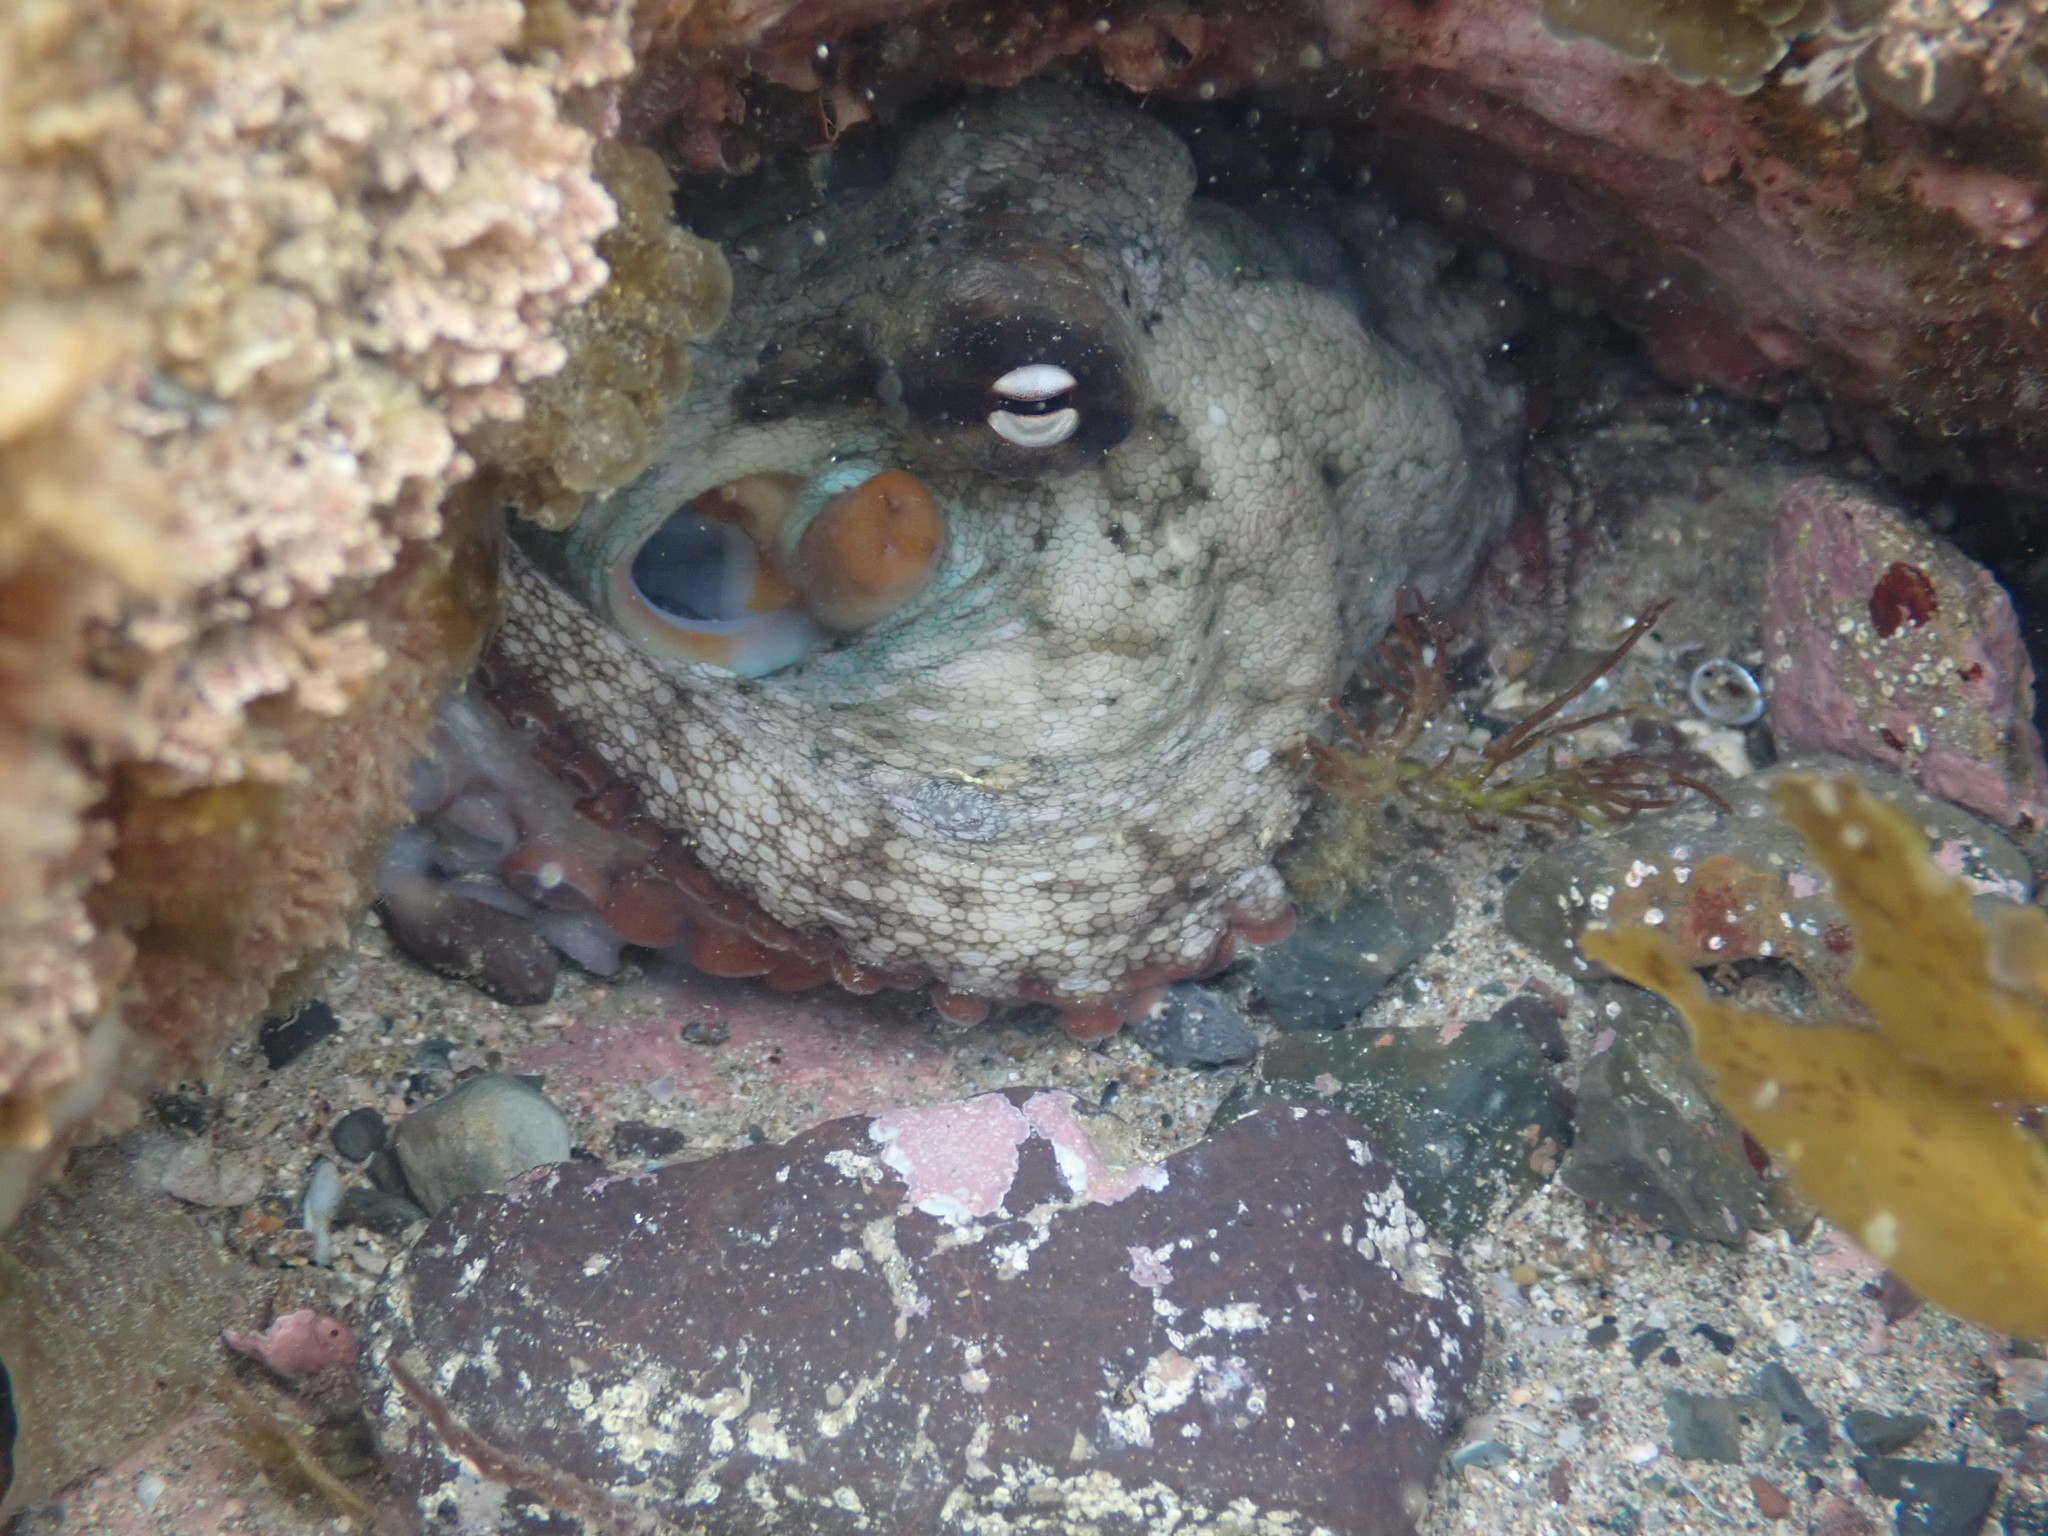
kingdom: Animalia
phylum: Mollusca
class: Cephalopoda
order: Octopoda
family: Octopodidae
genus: Octopus
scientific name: Octopus tetricus
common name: Sydney octopus
